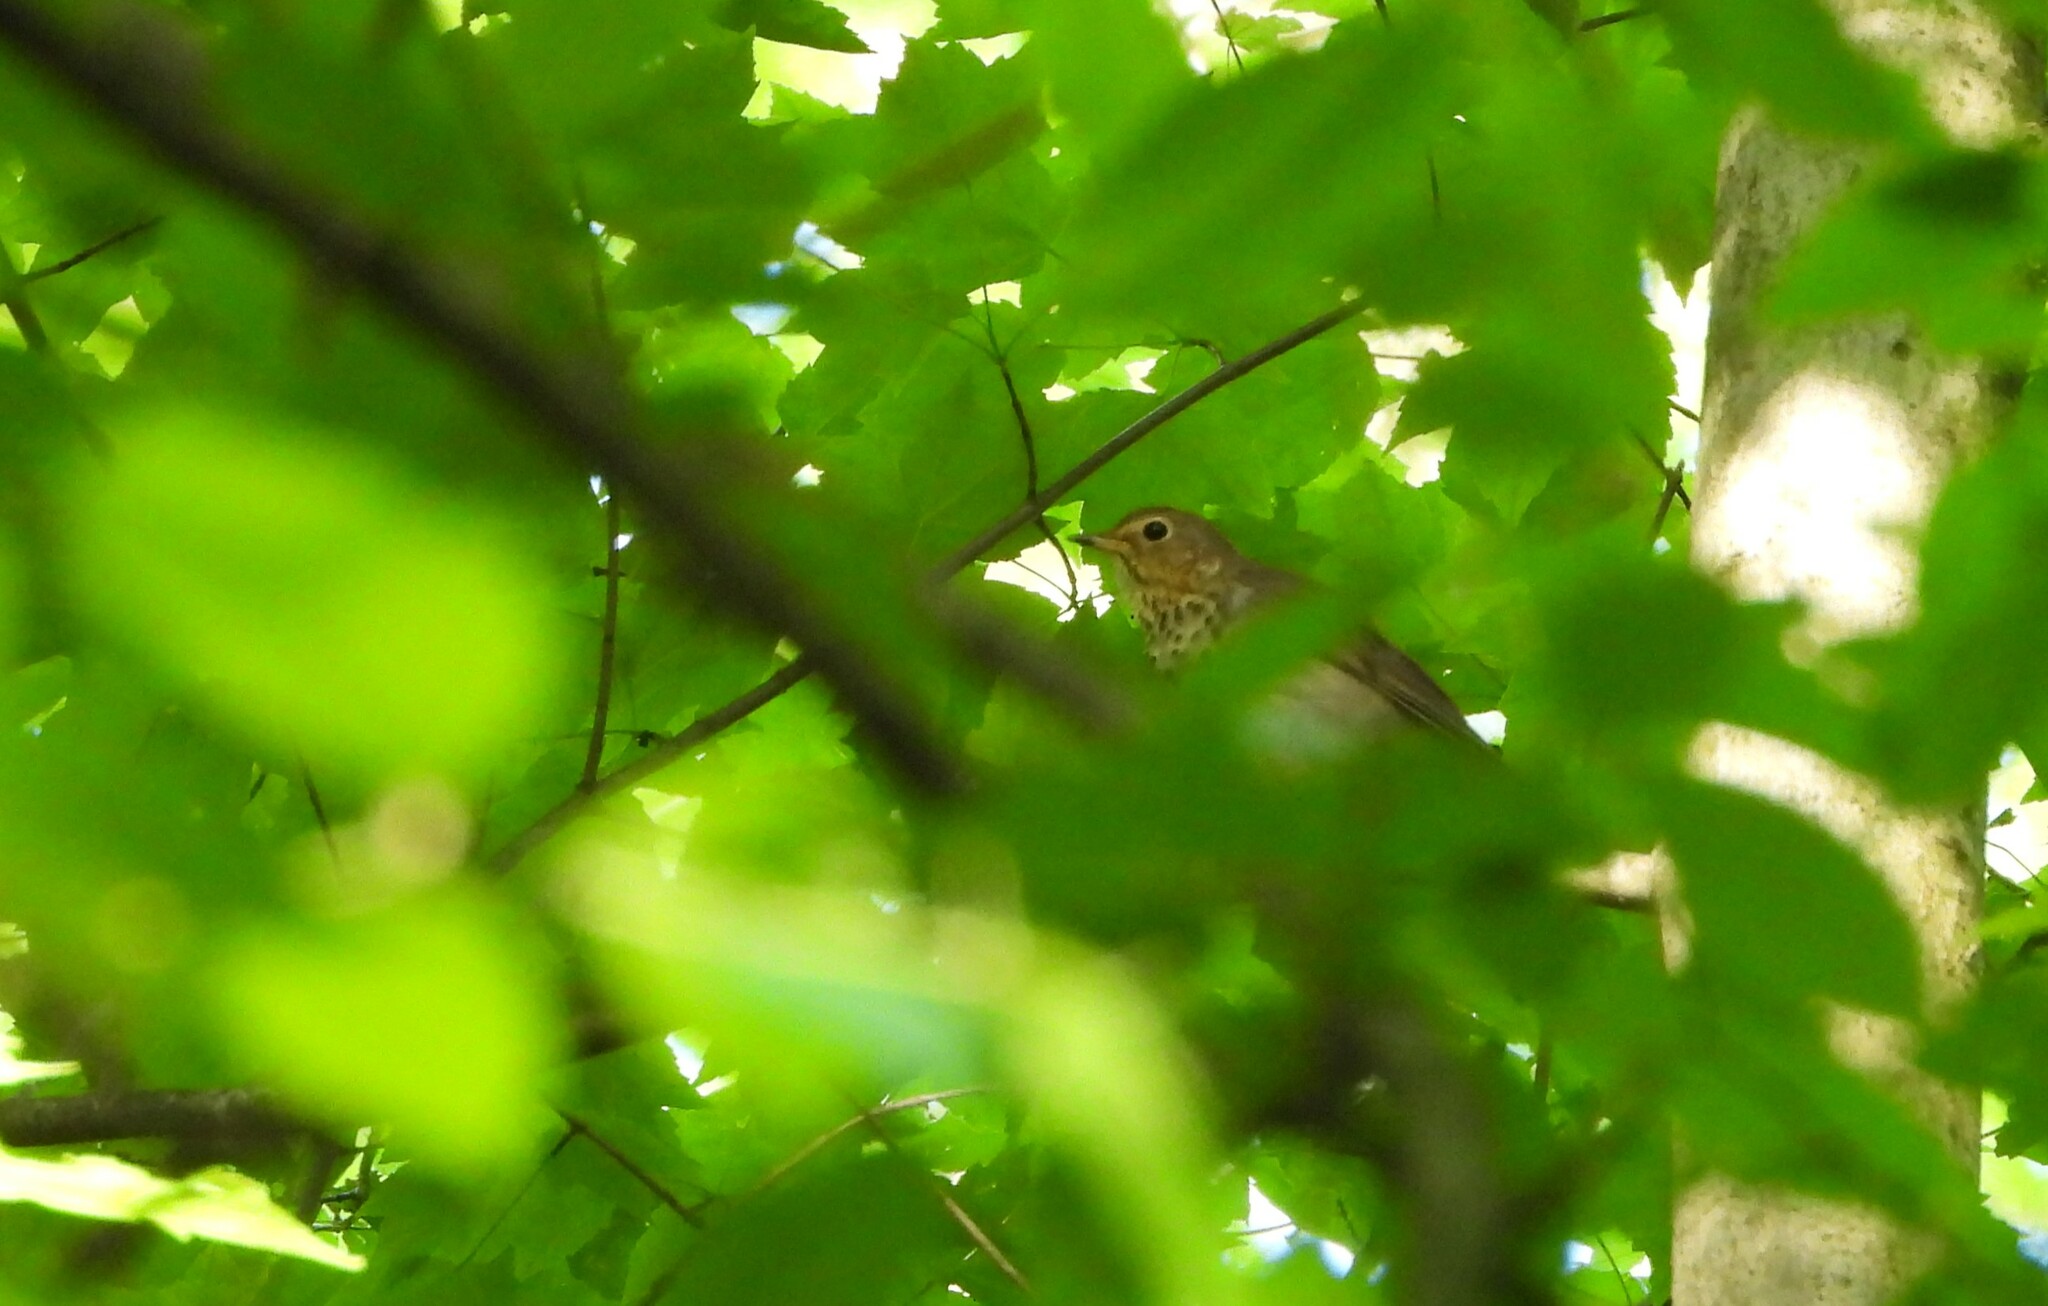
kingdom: Animalia
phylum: Chordata
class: Aves
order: Passeriformes
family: Turdidae
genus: Catharus
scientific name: Catharus ustulatus
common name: Swainson's thrush
